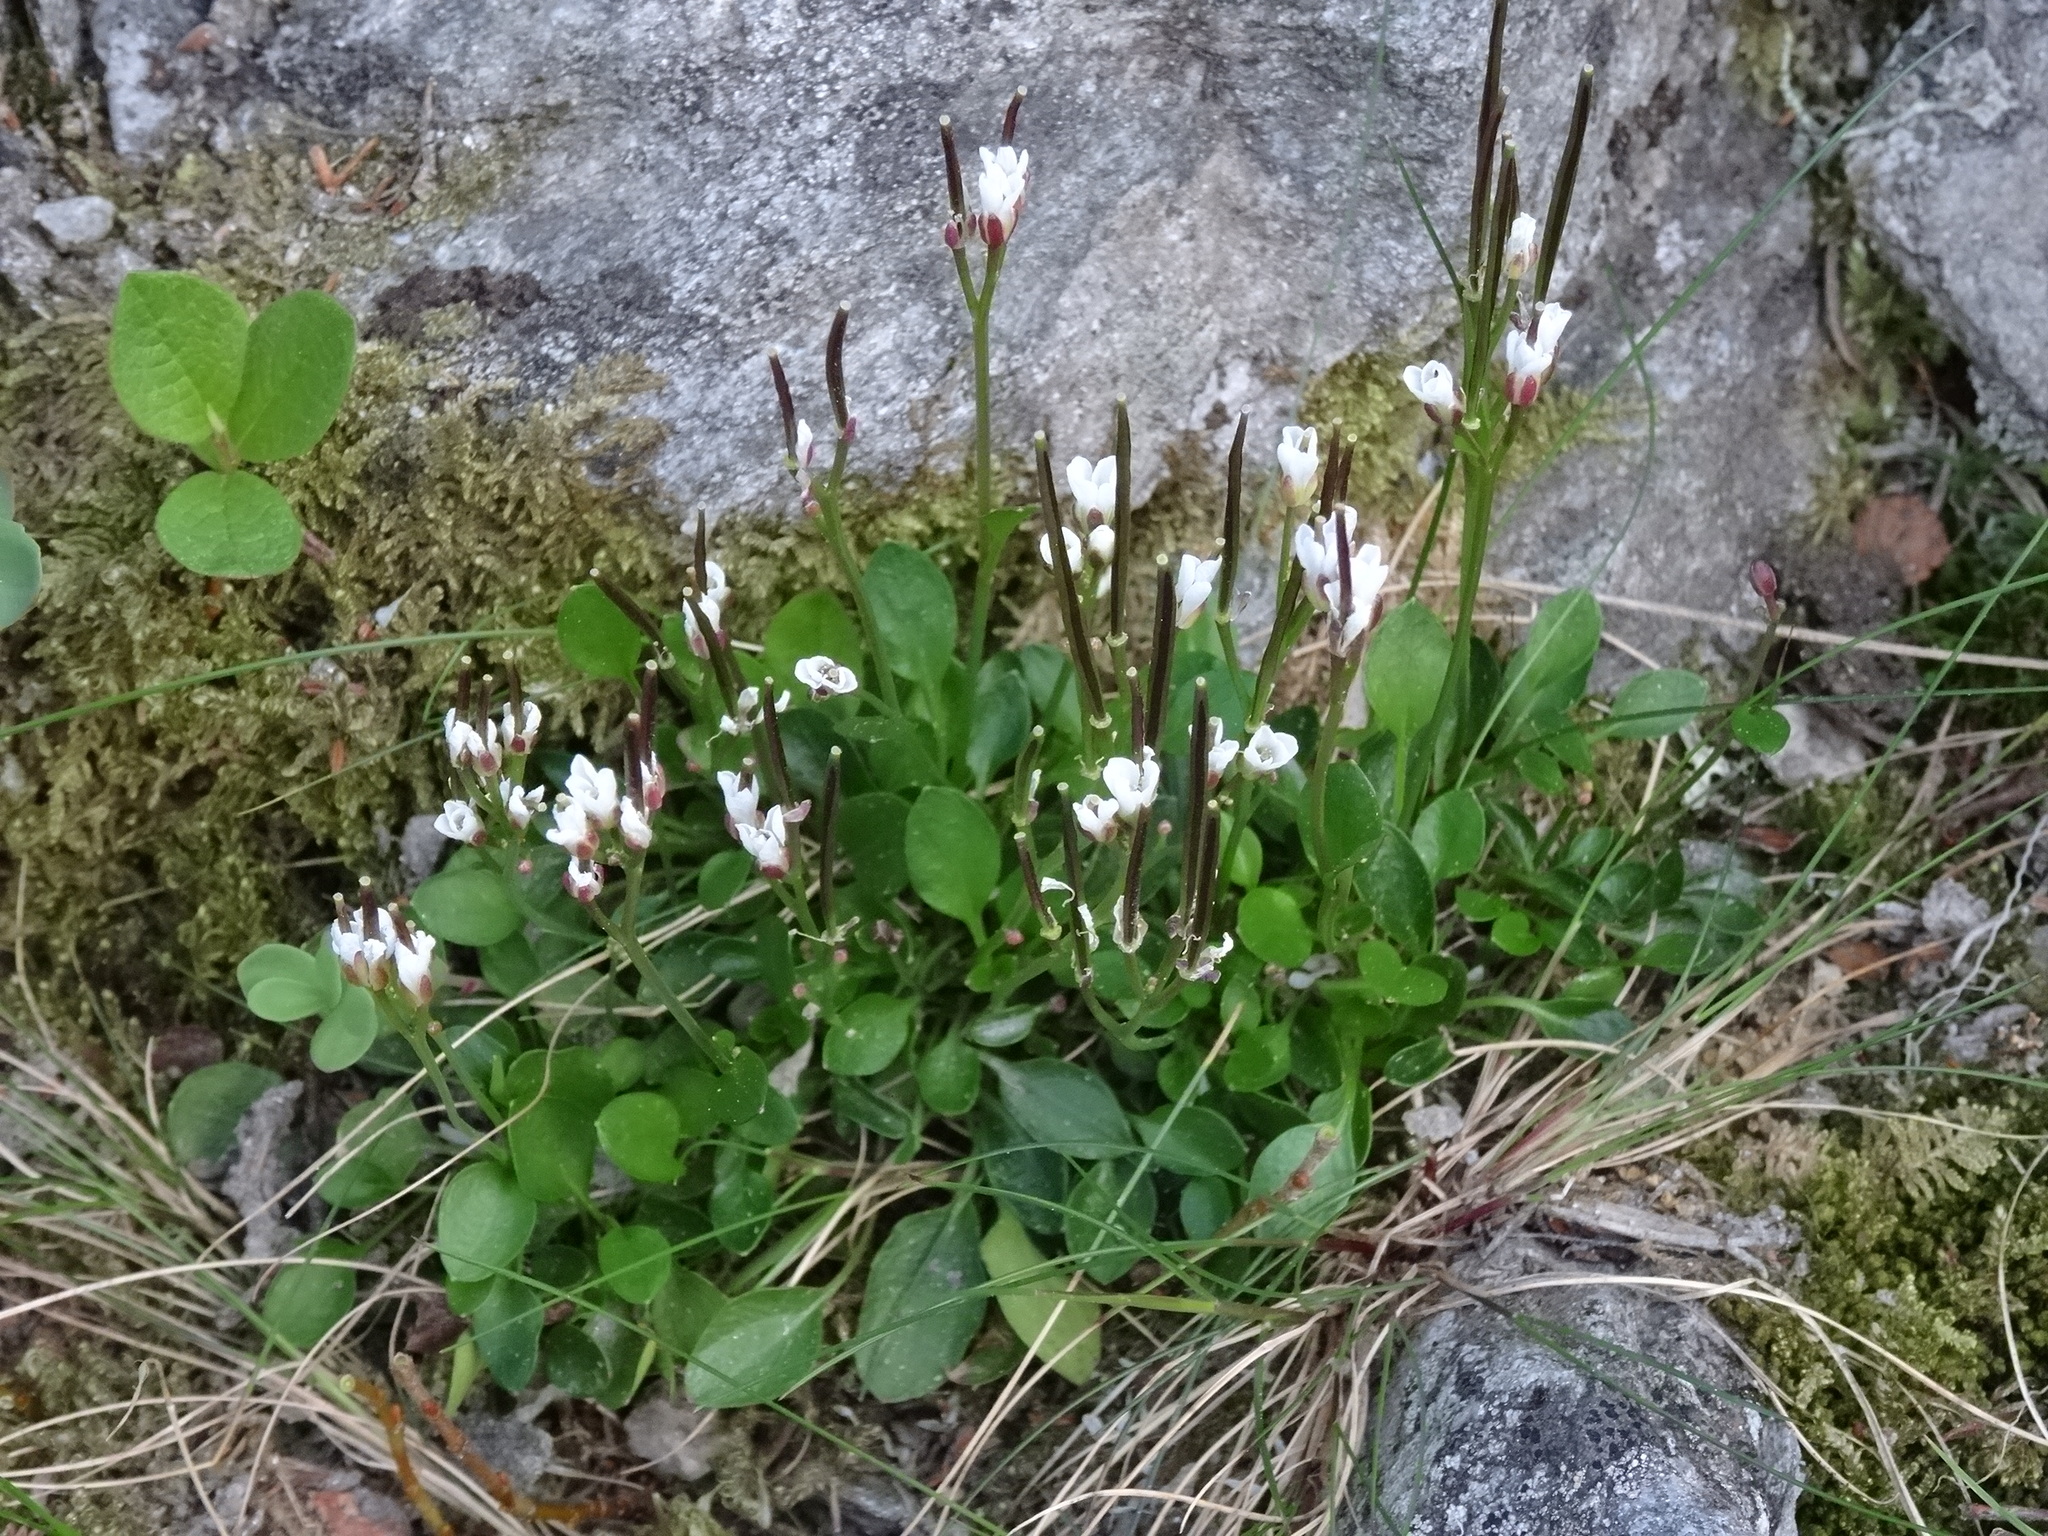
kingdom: Plantae
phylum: Tracheophyta
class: Magnoliopsida
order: Brassicales
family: Brassicaceae
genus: Cardamine
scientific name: Cardamine bellidifolia
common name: Alpine bittercress
